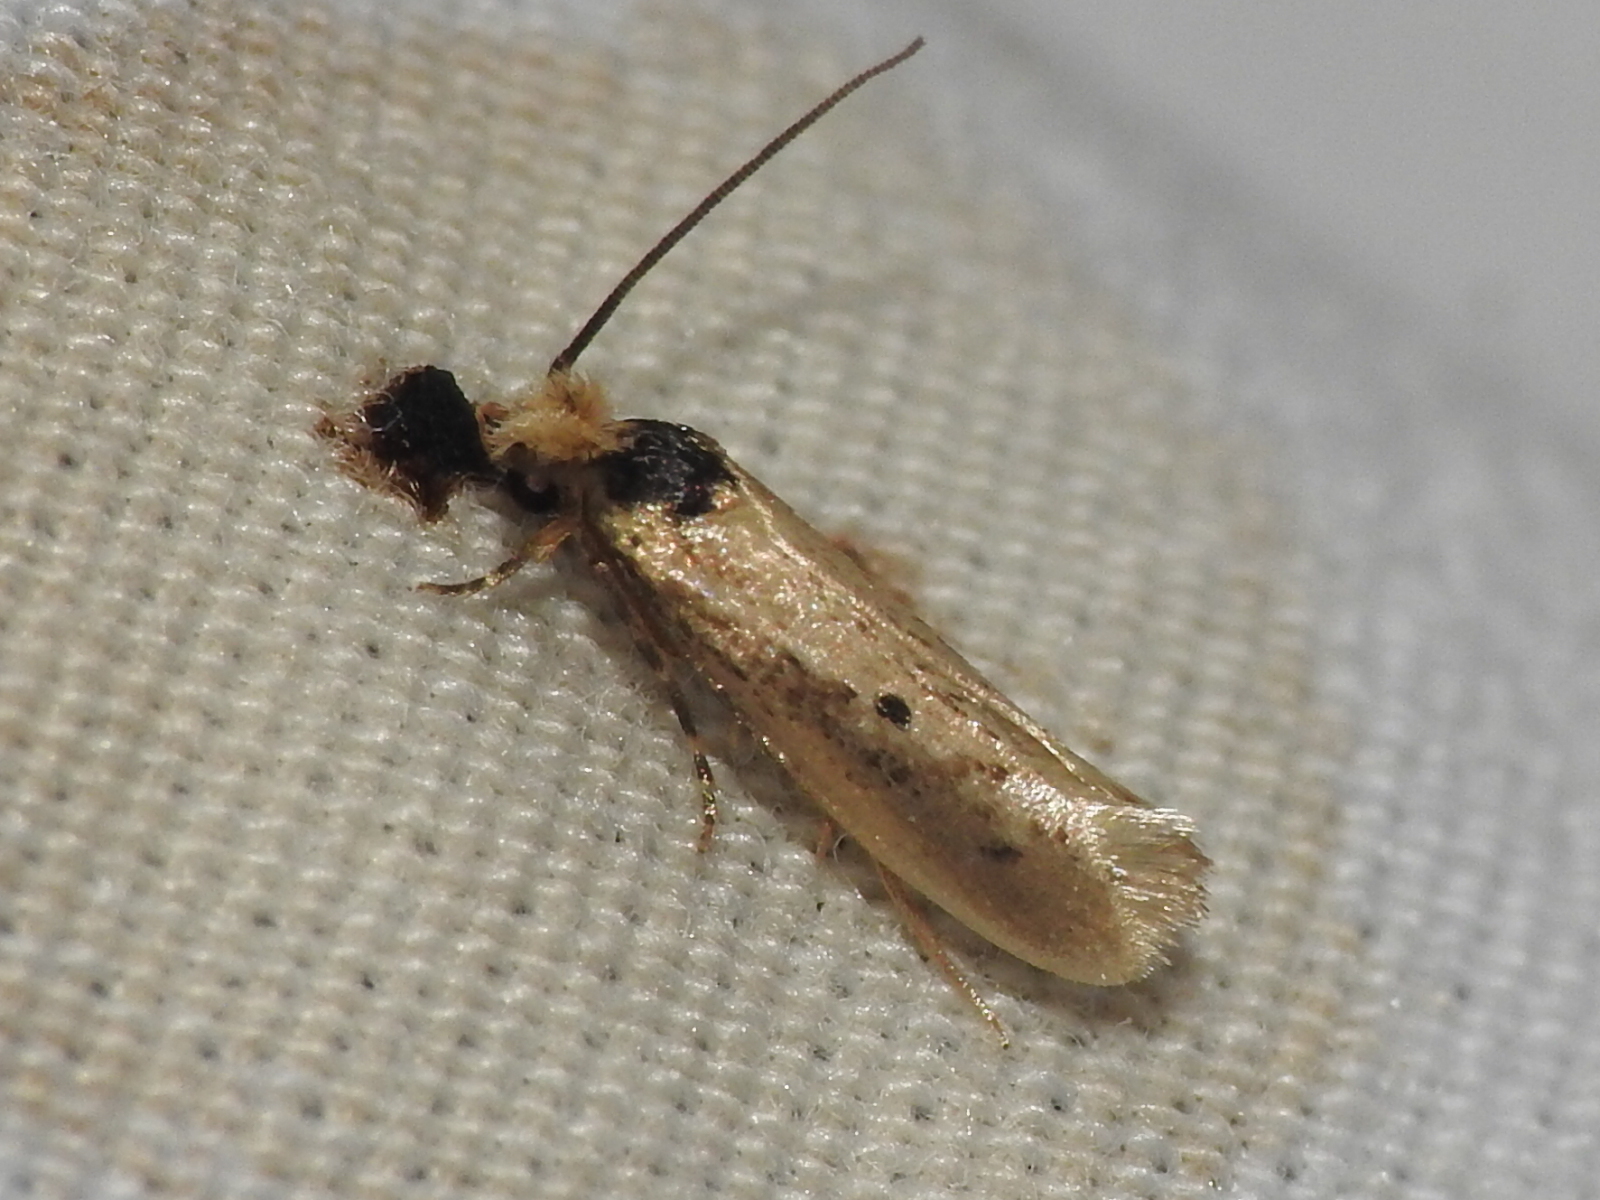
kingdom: Animalia
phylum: Arthropoda
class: Insecta
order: Lepidoptera
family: Tineidae
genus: Tinea
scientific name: Tinea apicimaculella
